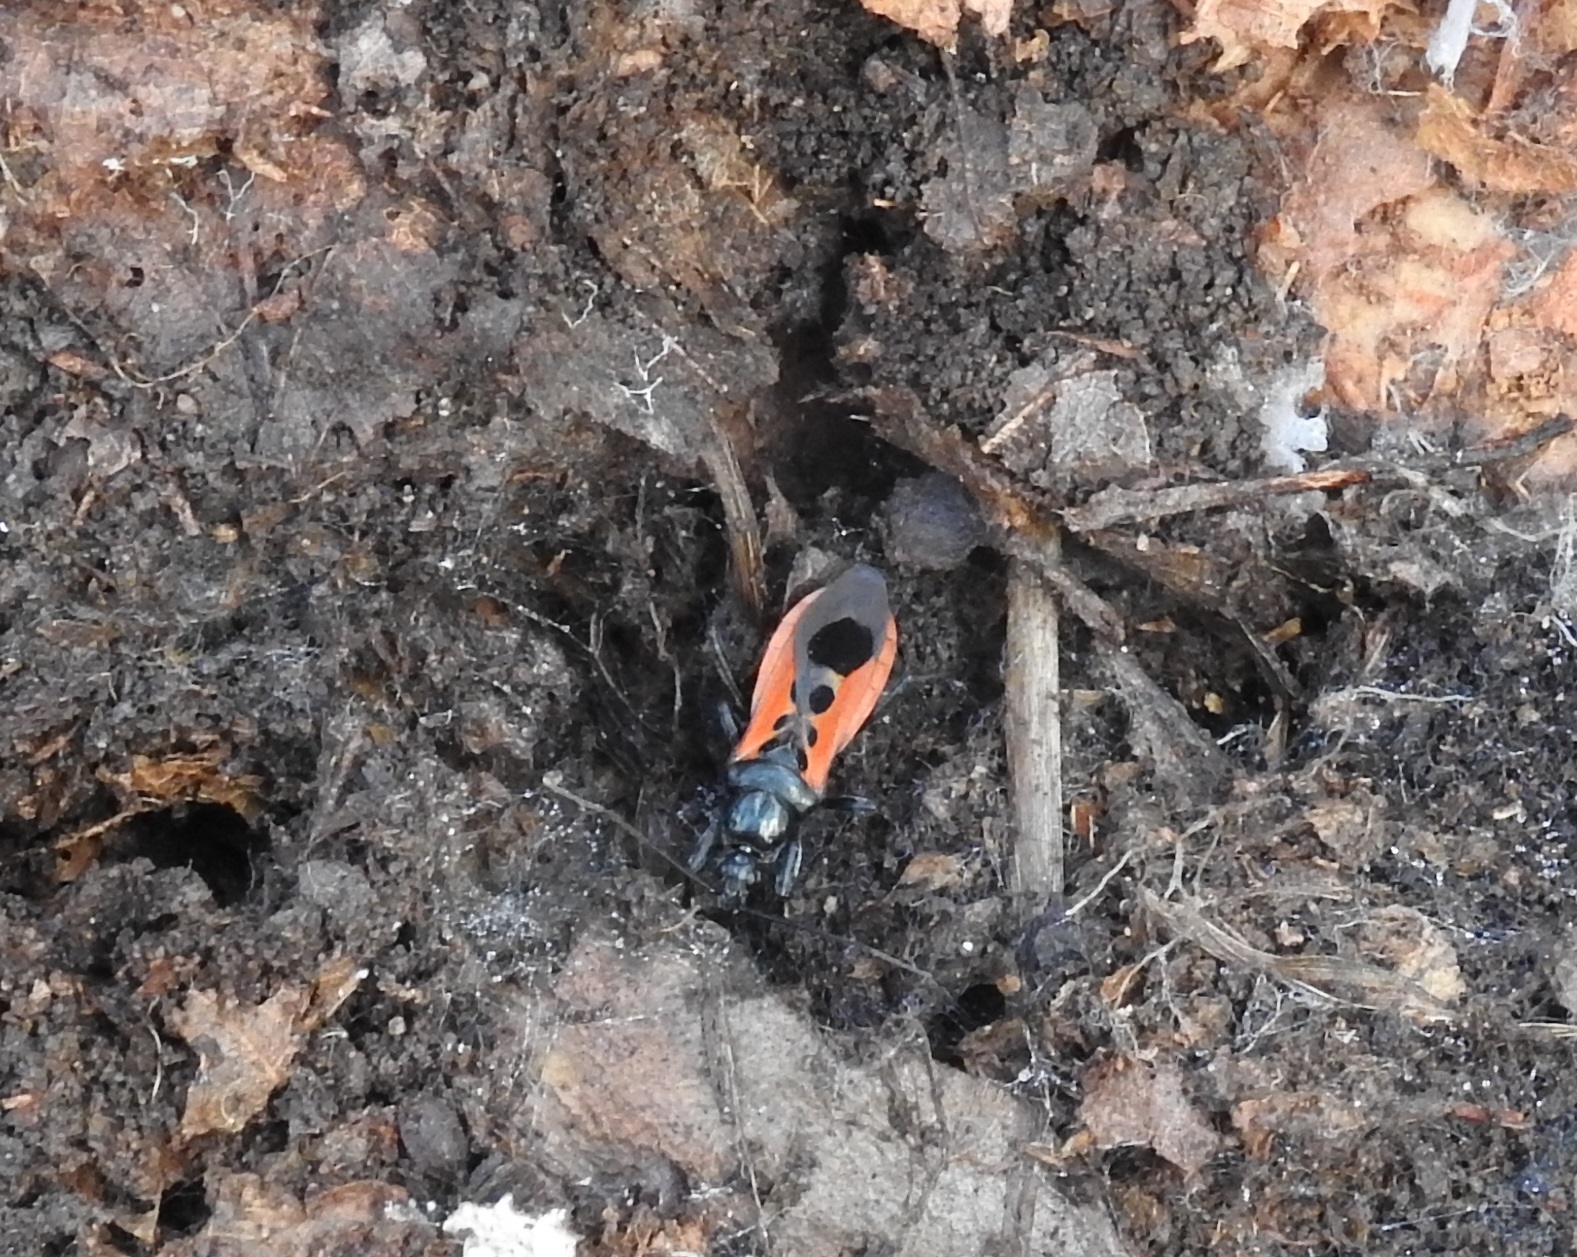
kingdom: Animalia
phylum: Arthropoda
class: Insecta
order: Hemiptera
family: Reduviidae
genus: Peirates
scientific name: Peirates stridulus
